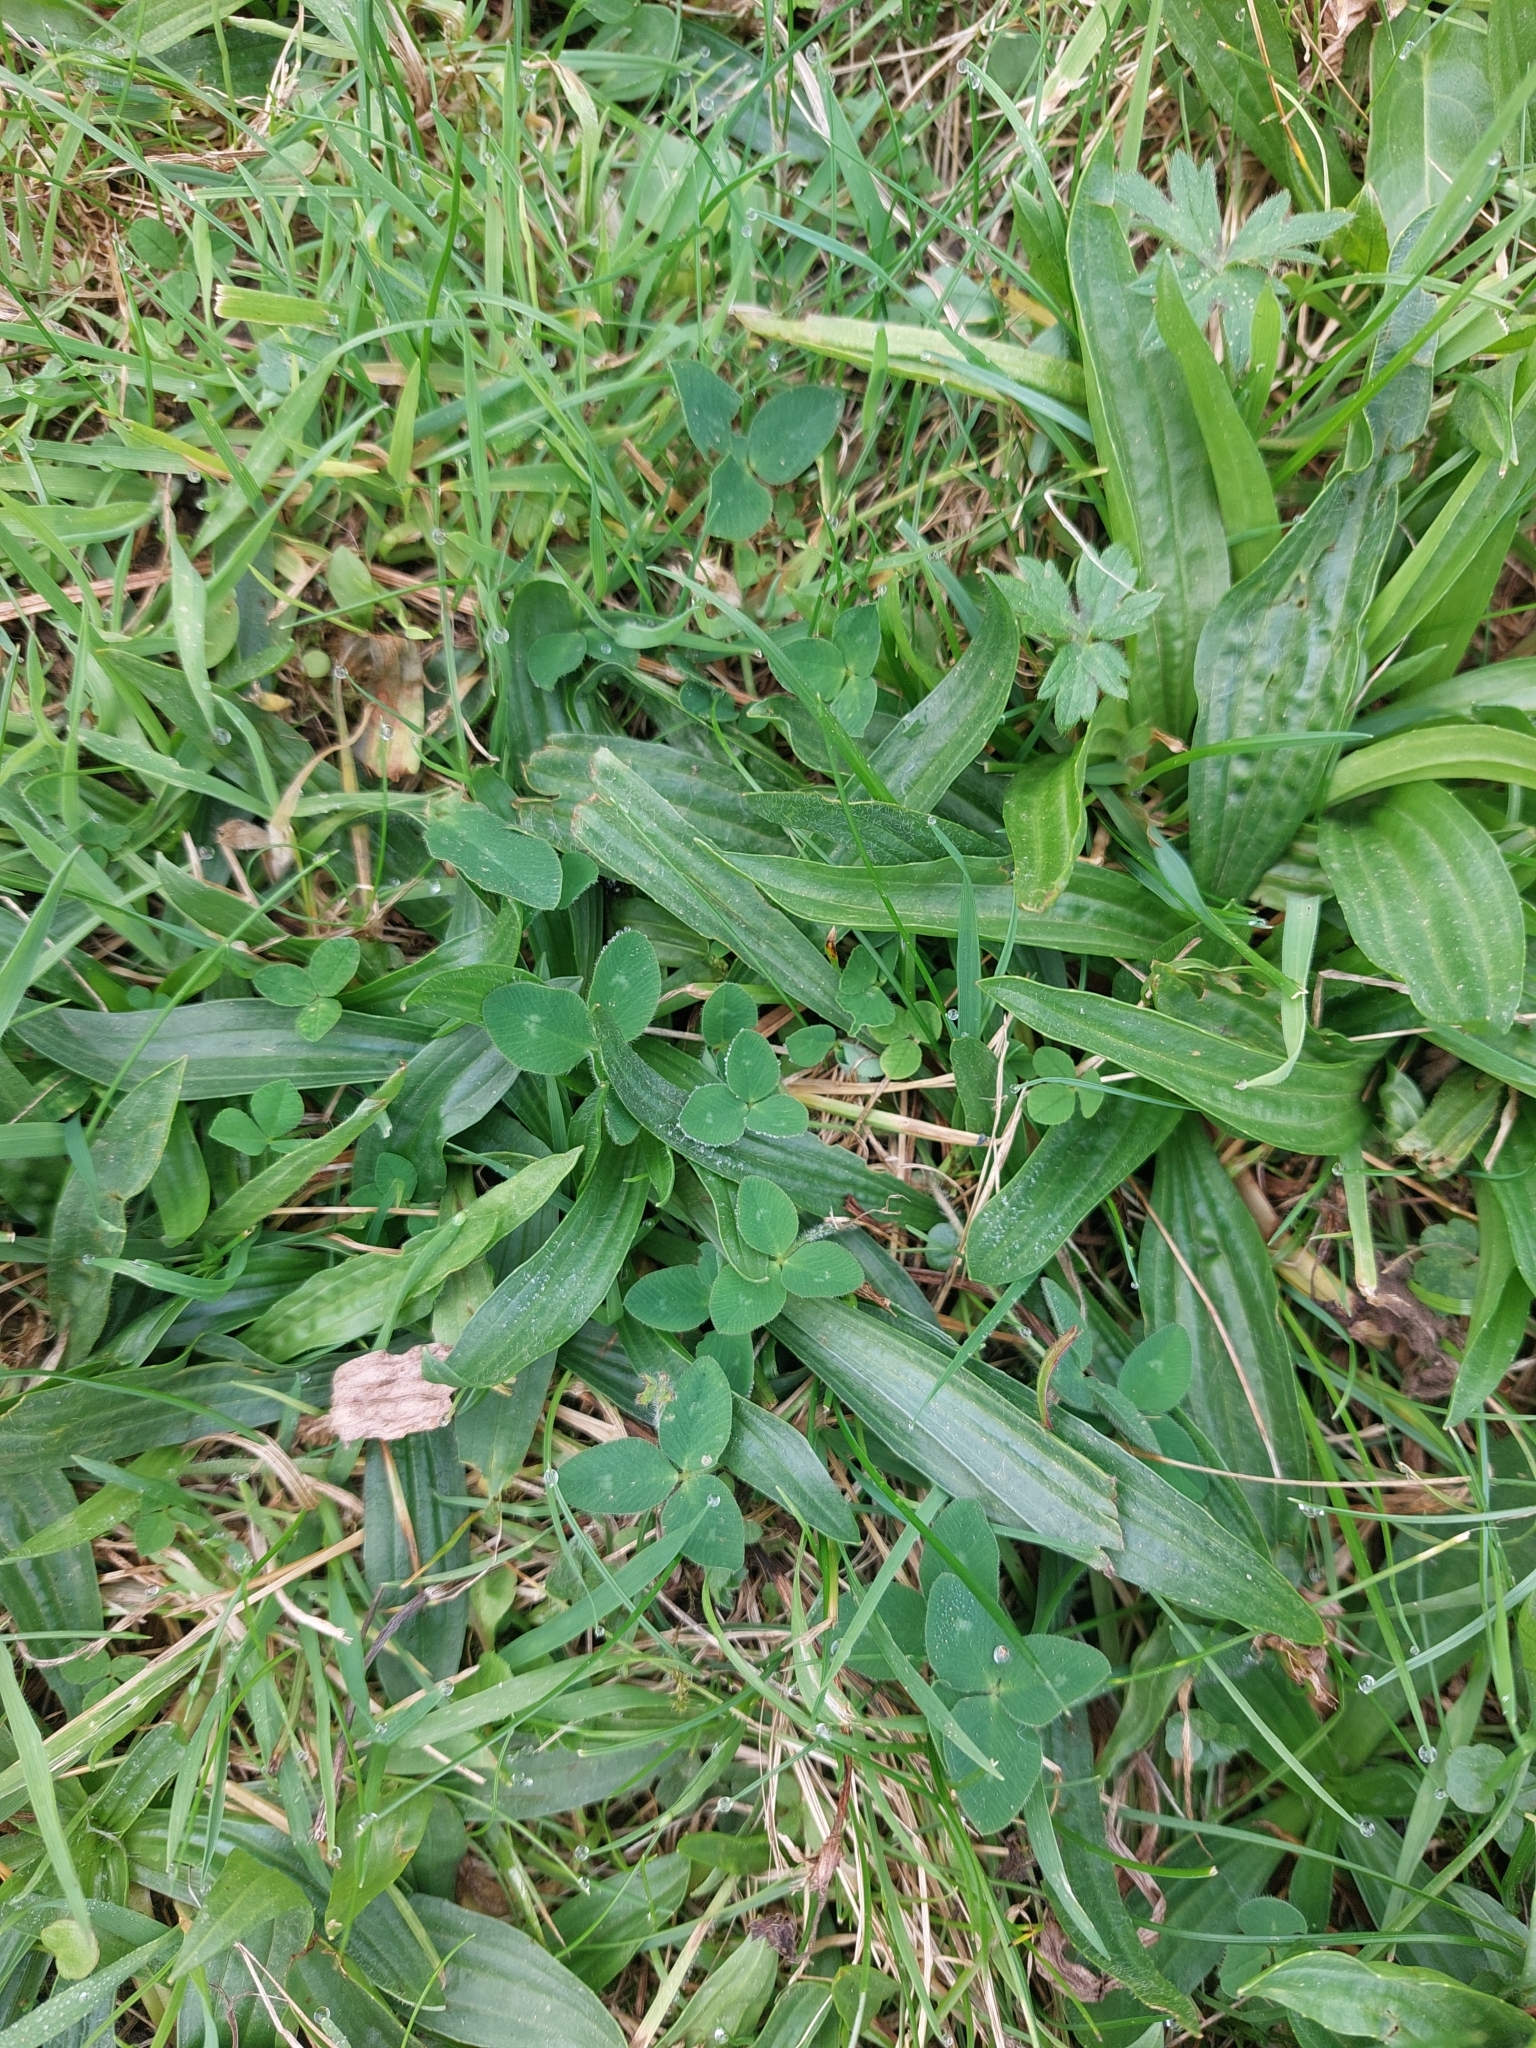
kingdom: Plantae
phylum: Tracheophyta
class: Magnoliopsida
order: Lamiales
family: Plantaginaceae
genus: Plantago
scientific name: Plantago lanceolata
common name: Ribwort plantain
